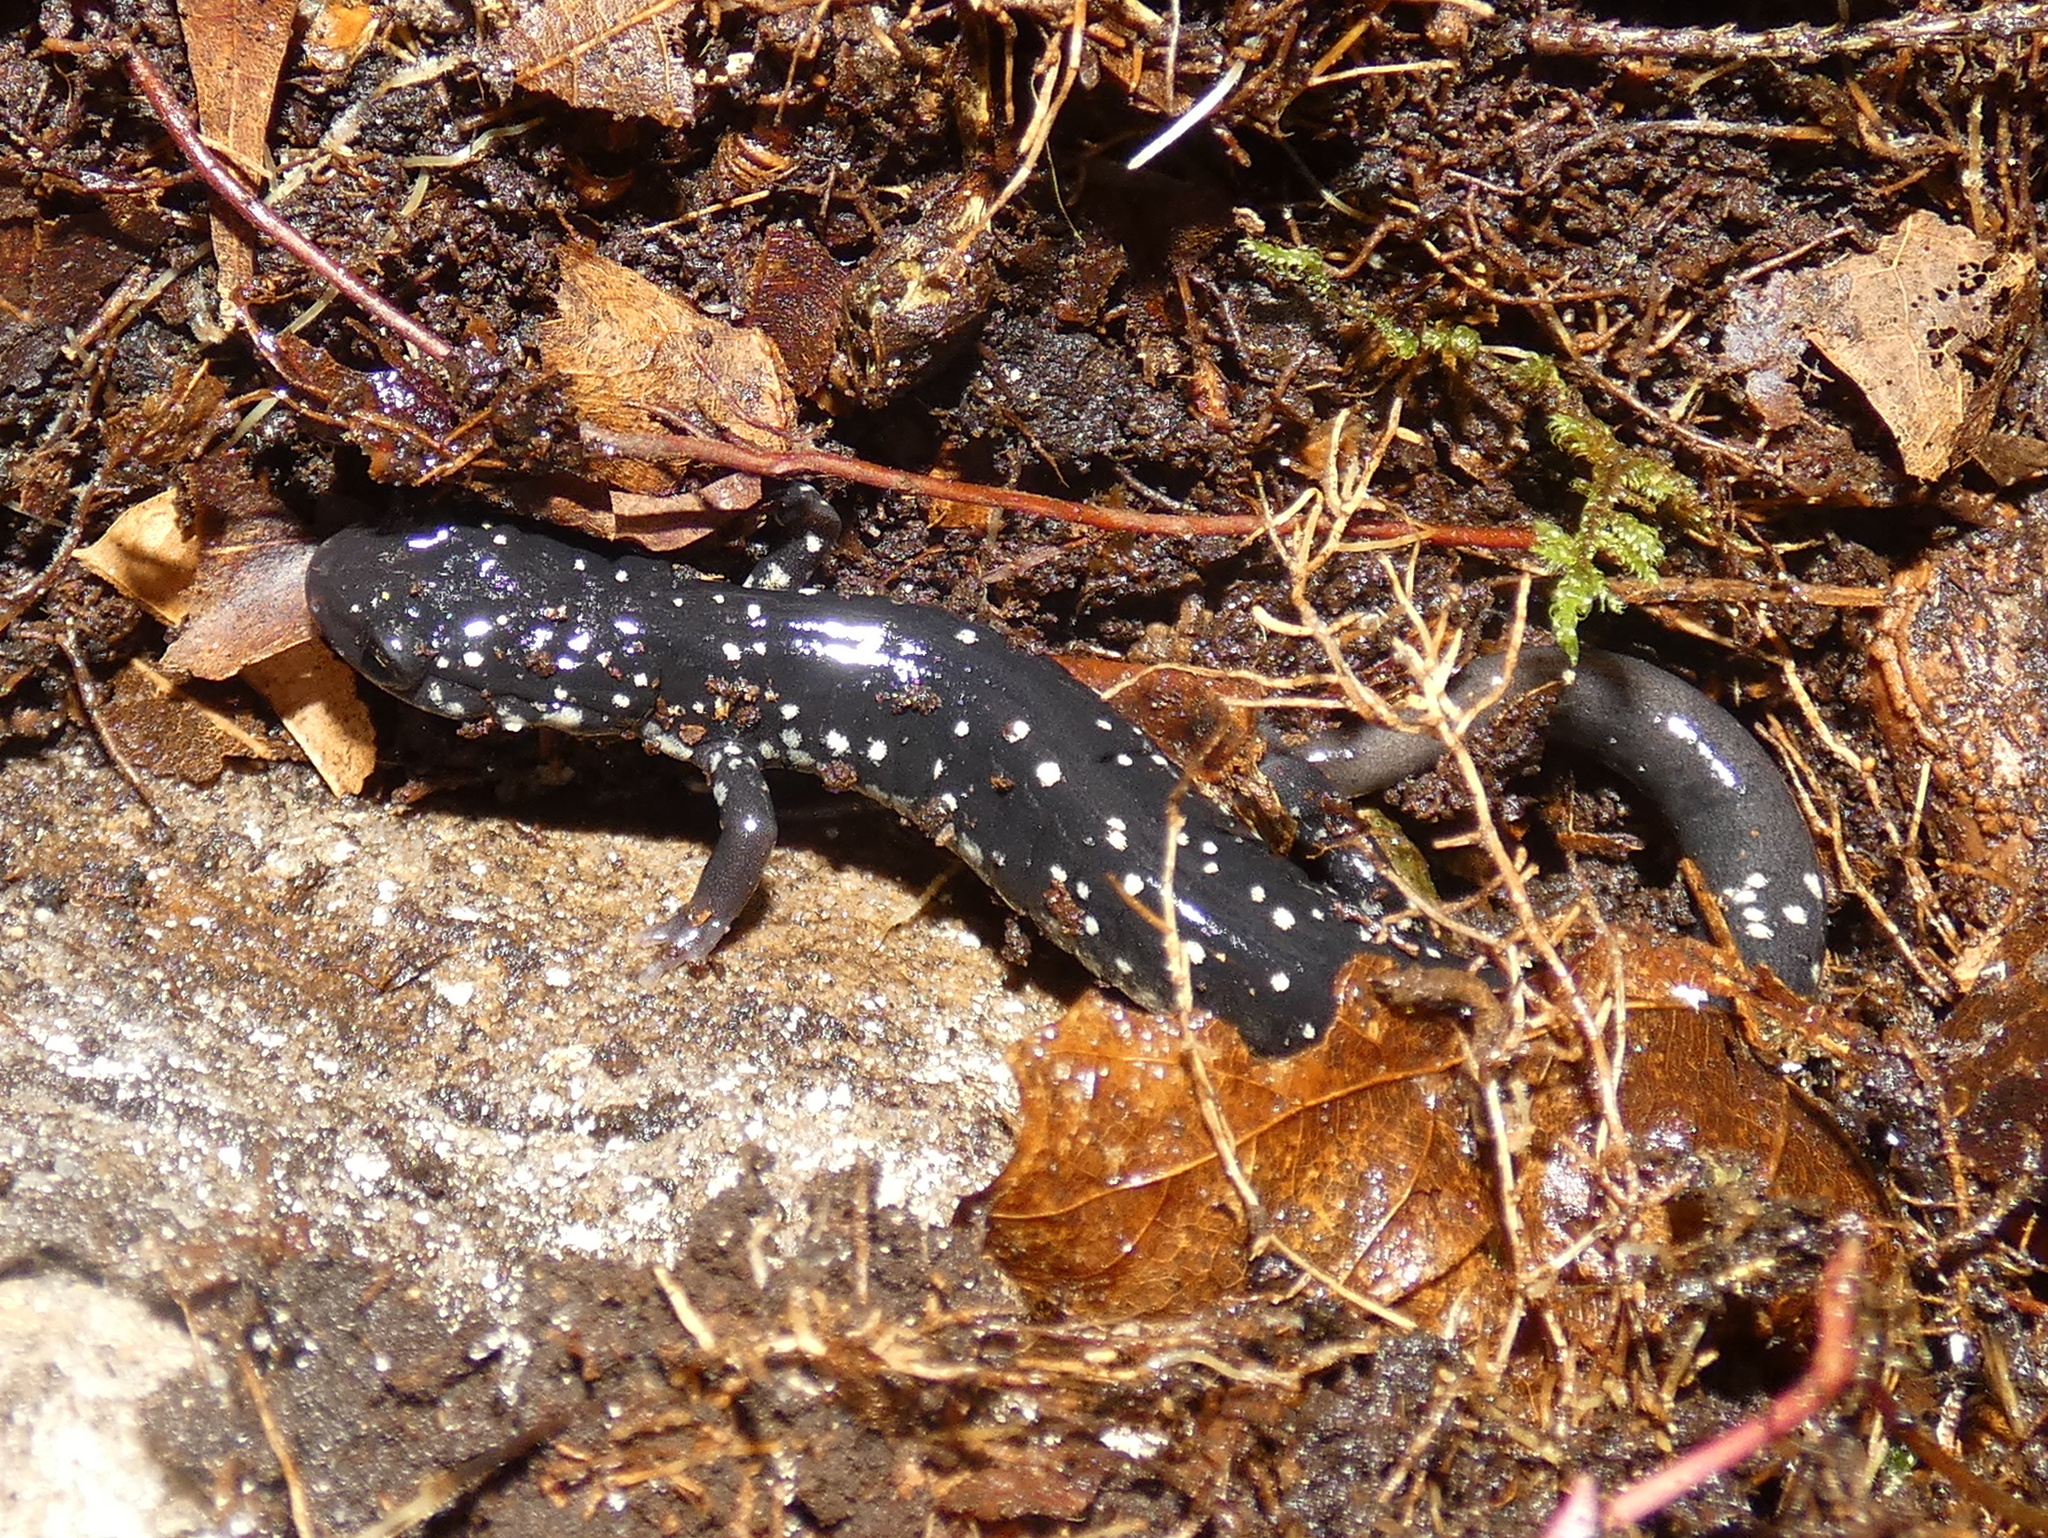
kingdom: Animalia
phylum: Chordata
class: Amphibia
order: Caudata
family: Plethodontidae
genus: Plethodon
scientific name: Plethodon glutinosus
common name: Northern slimy salamander
